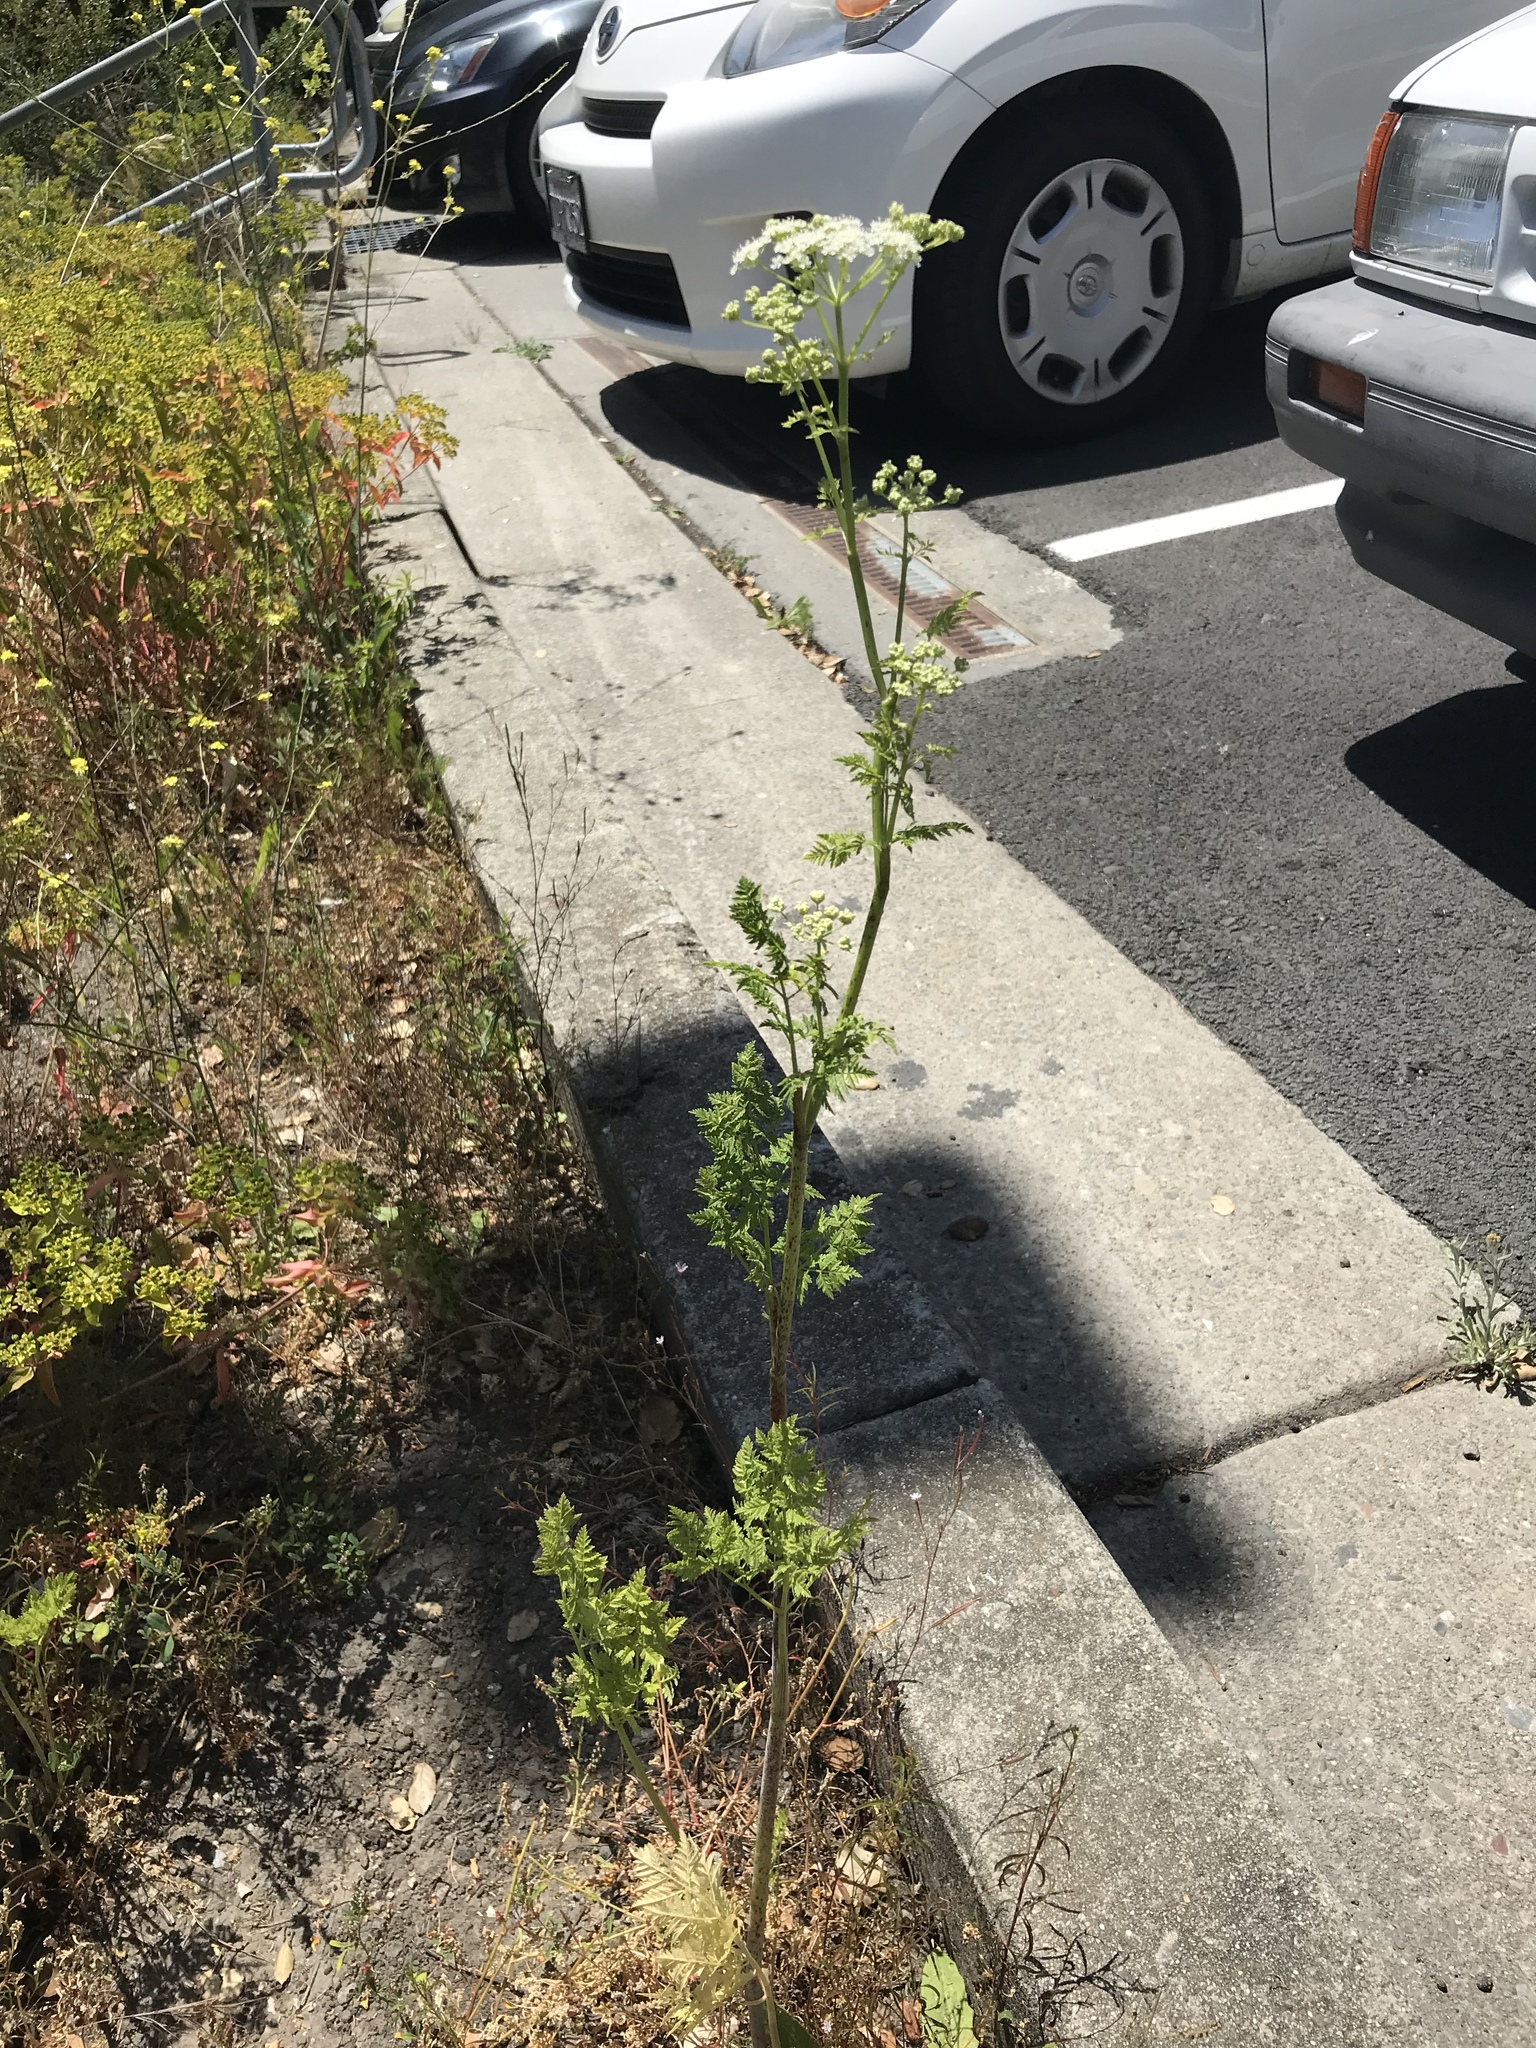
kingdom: Plantae
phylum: Tracheophyta
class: Magnoliopsida
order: Apiales
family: Apiaceae
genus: Conium
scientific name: Conium maculatum
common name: Hemlock
